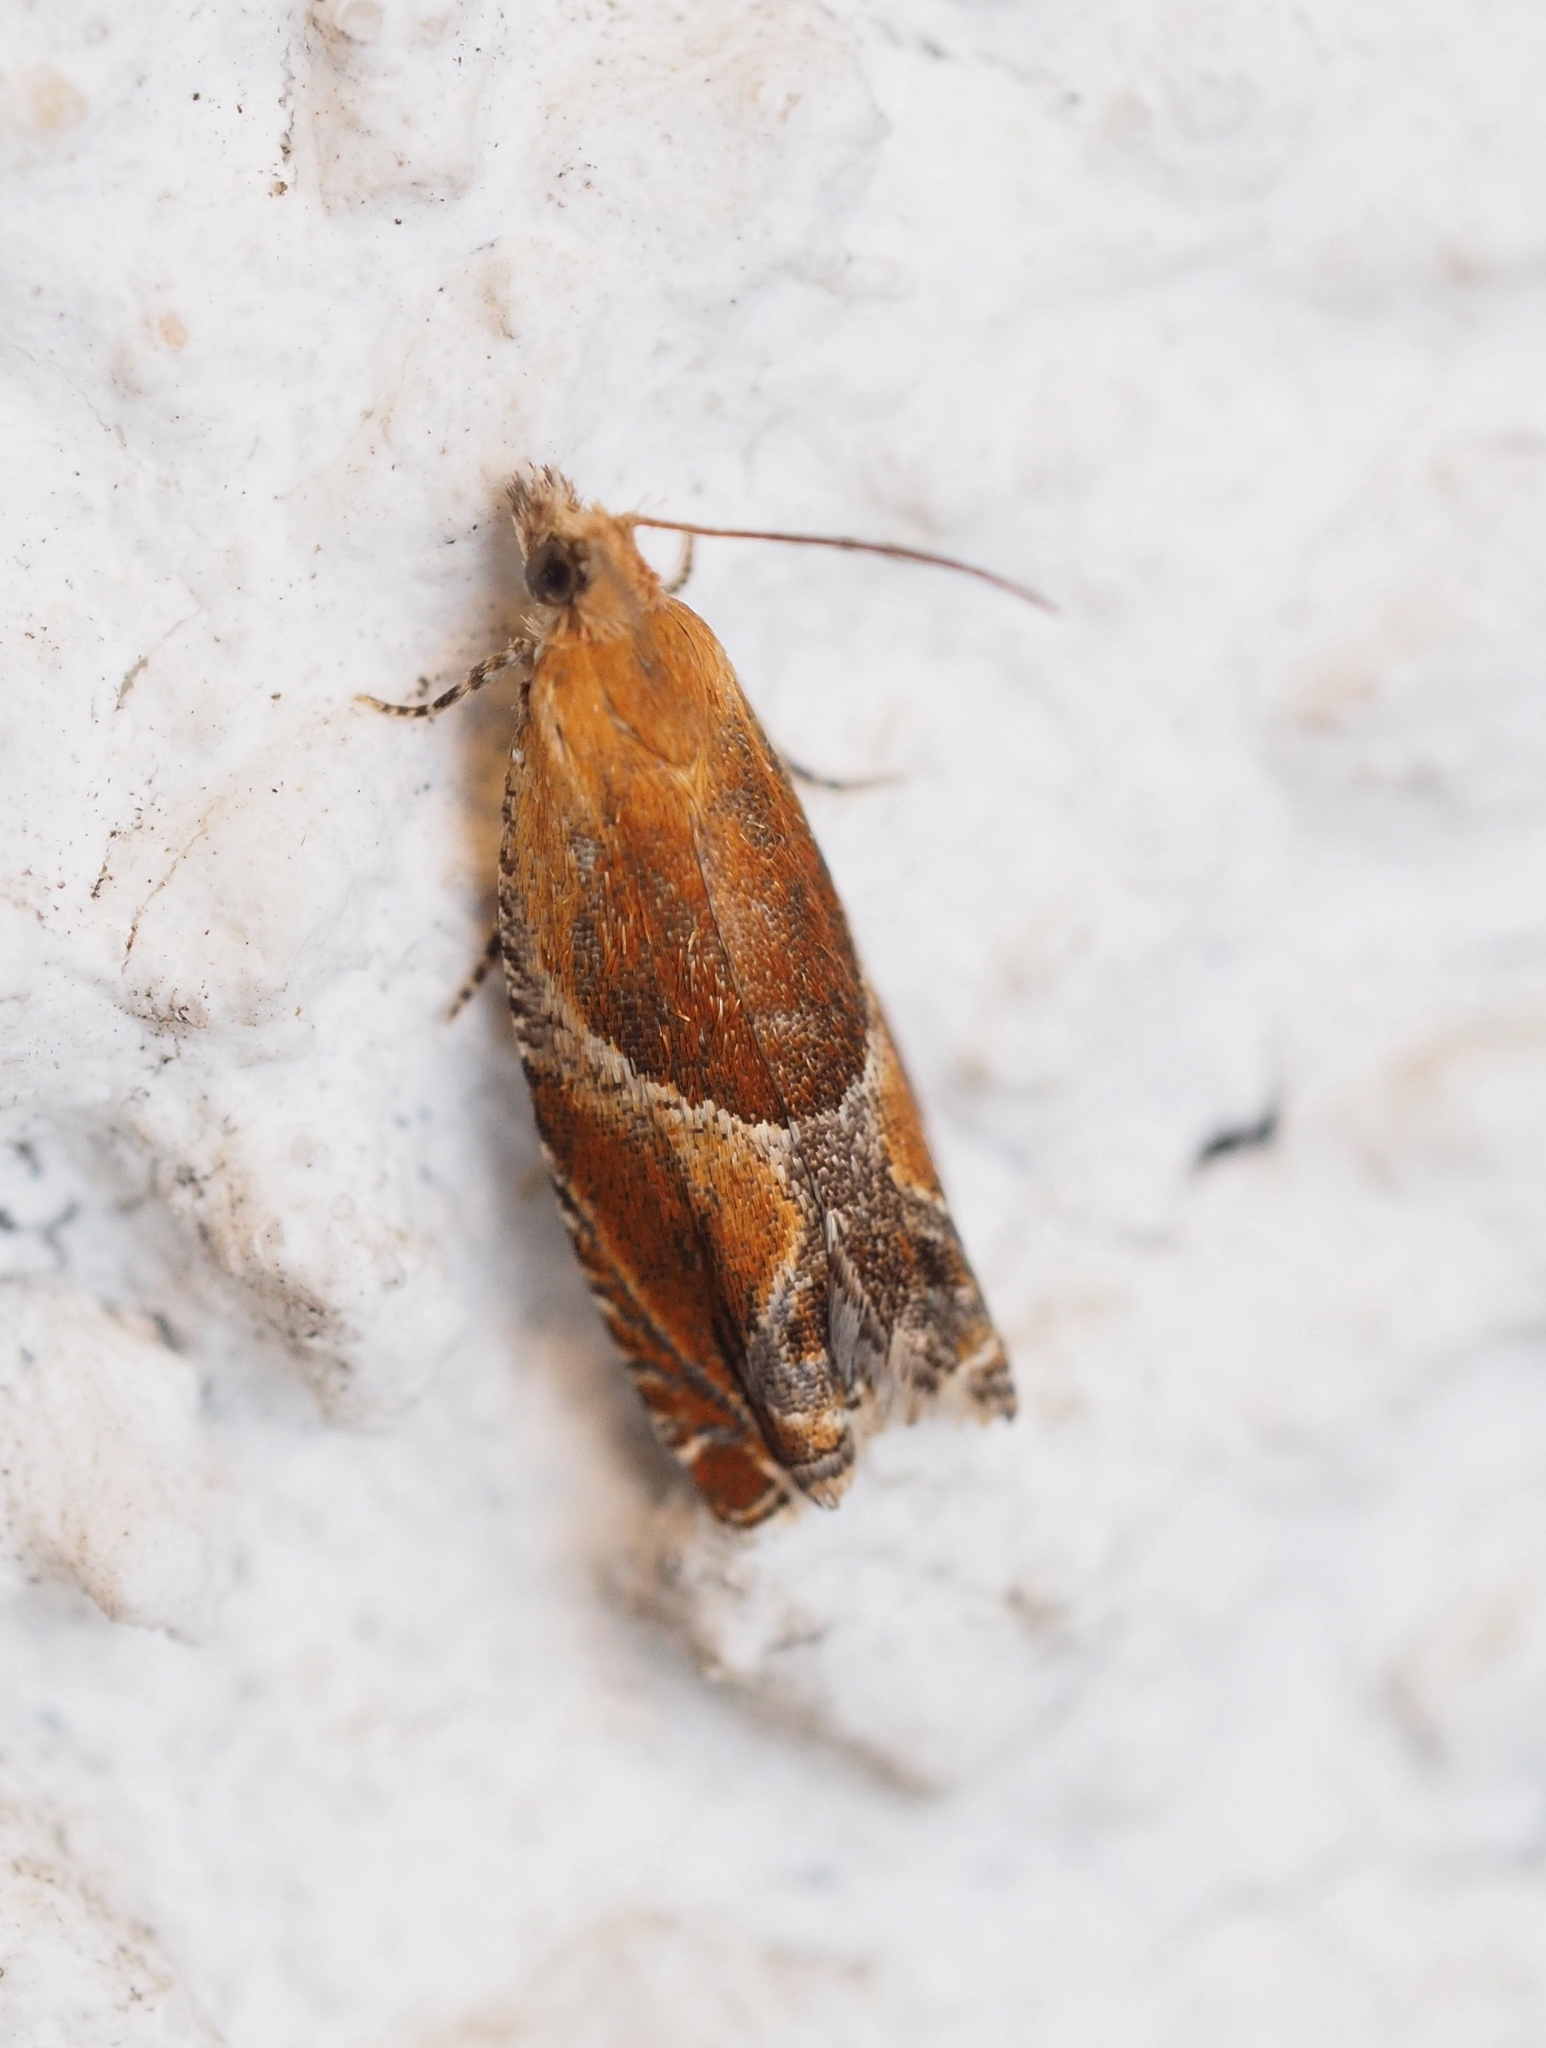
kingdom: Animalia
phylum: Arthropoda
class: Insecta
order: Lepidoptera
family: Tortricidae
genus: Ancylis
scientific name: Ancylis obtusana
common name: Small buckthorn roller
